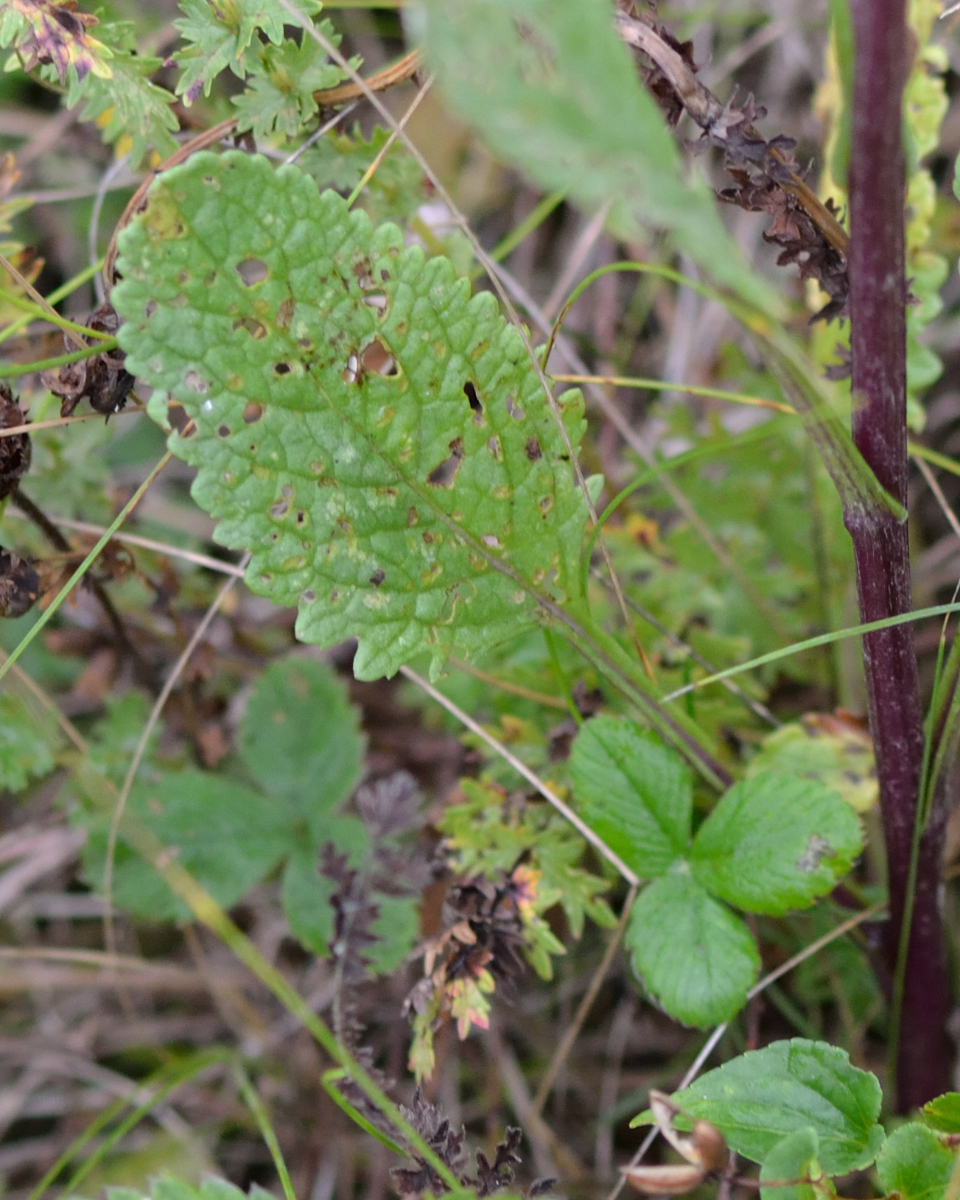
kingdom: Plantae
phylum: Tracheophyta
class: Magnoliopsida
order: Asterales
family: Asteraceae
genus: Jacobaea
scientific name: Jacobaea vulgaris
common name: Stinking willie
